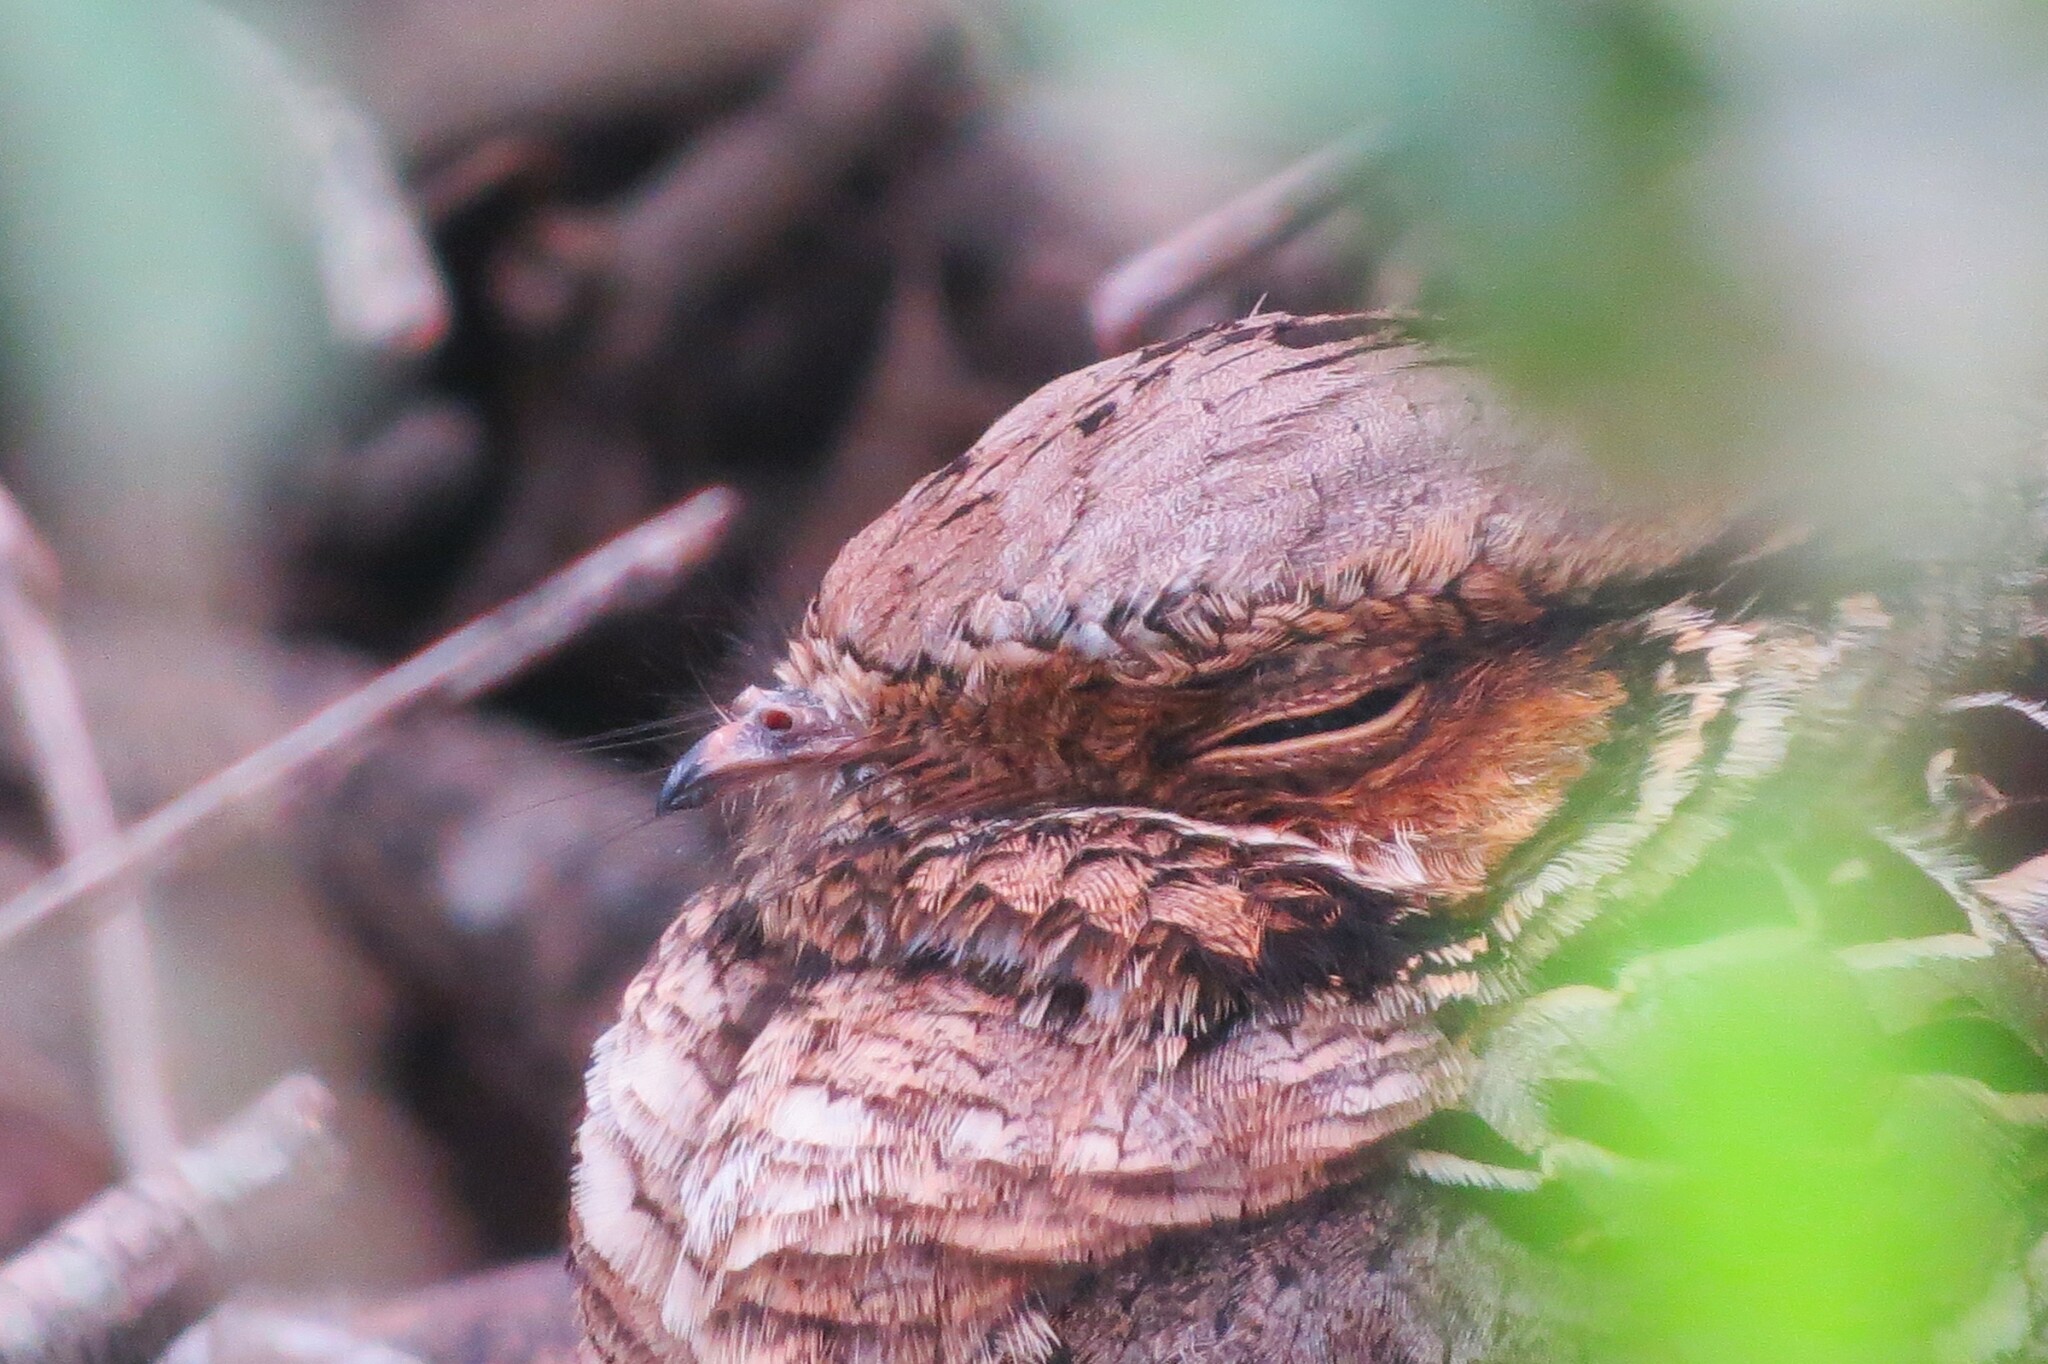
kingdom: Animalia
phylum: Chordata
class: Aves
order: Caprimulgiformes
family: Caprimulgidae
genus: Nyctidromus
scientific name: Nyctidromus albicollis
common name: Pauraque
